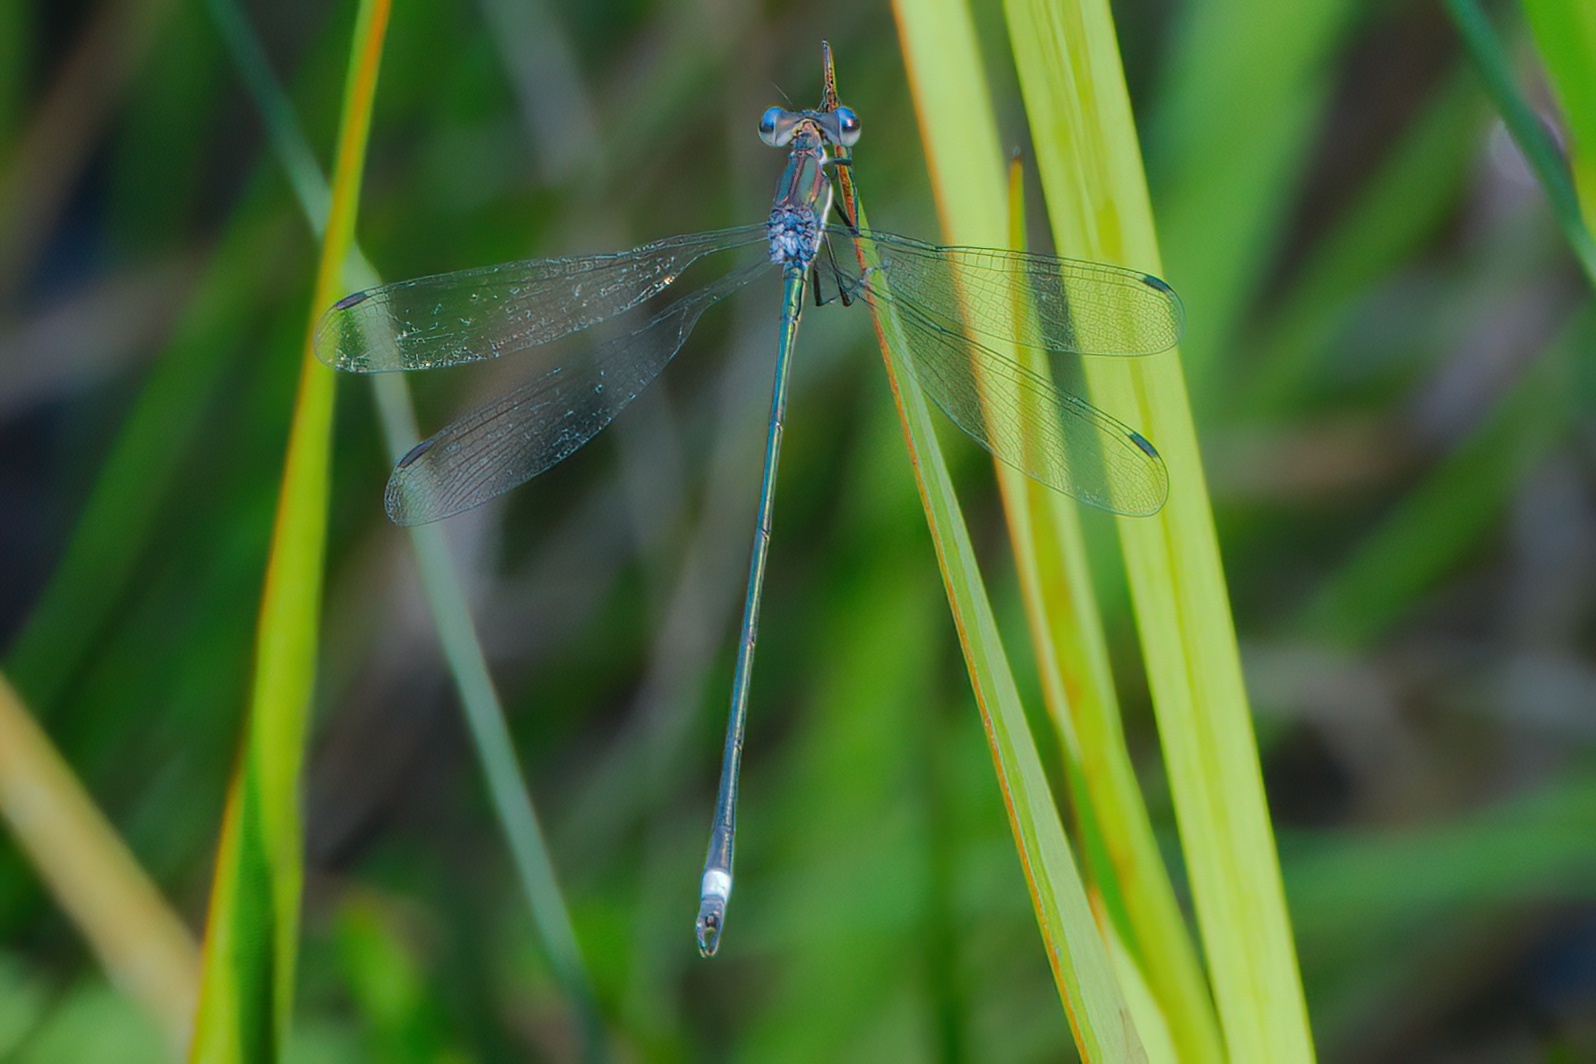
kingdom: Animalia
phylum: Arthropoda
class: Insecta
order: Odonata
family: Lestidae
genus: Lestes
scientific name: Lestes vigilax
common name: Swamp spreadwing
